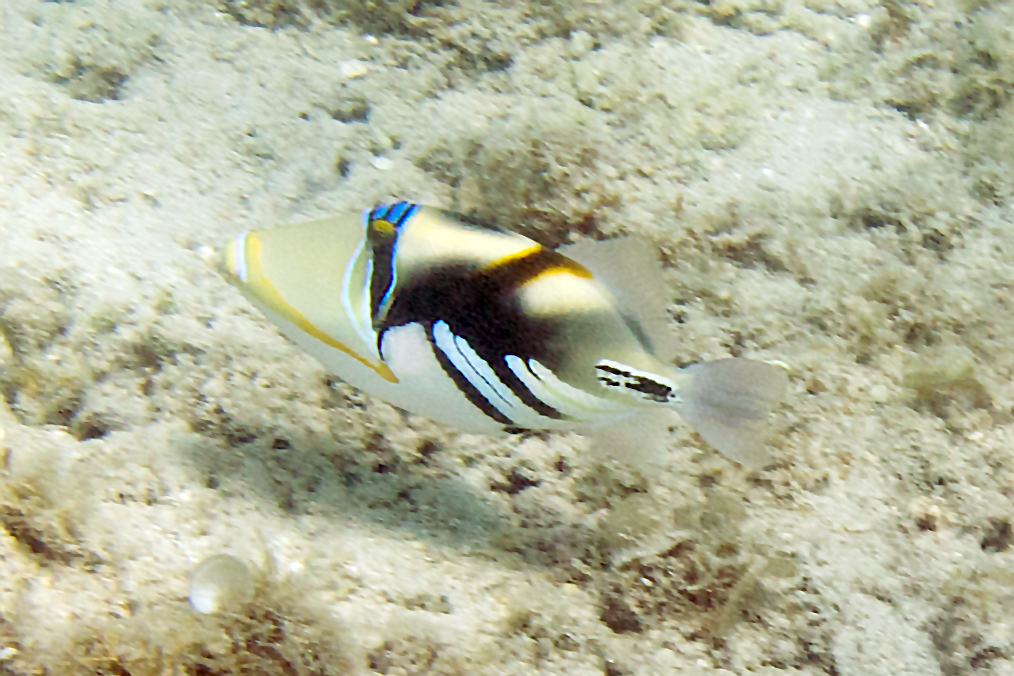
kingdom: Animalia
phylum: Chordata
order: Tetraodontiformes
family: Balistidae
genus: Rhinecanthus
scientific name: Rhinecanthus aculeatus
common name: White-banded triggerfish
